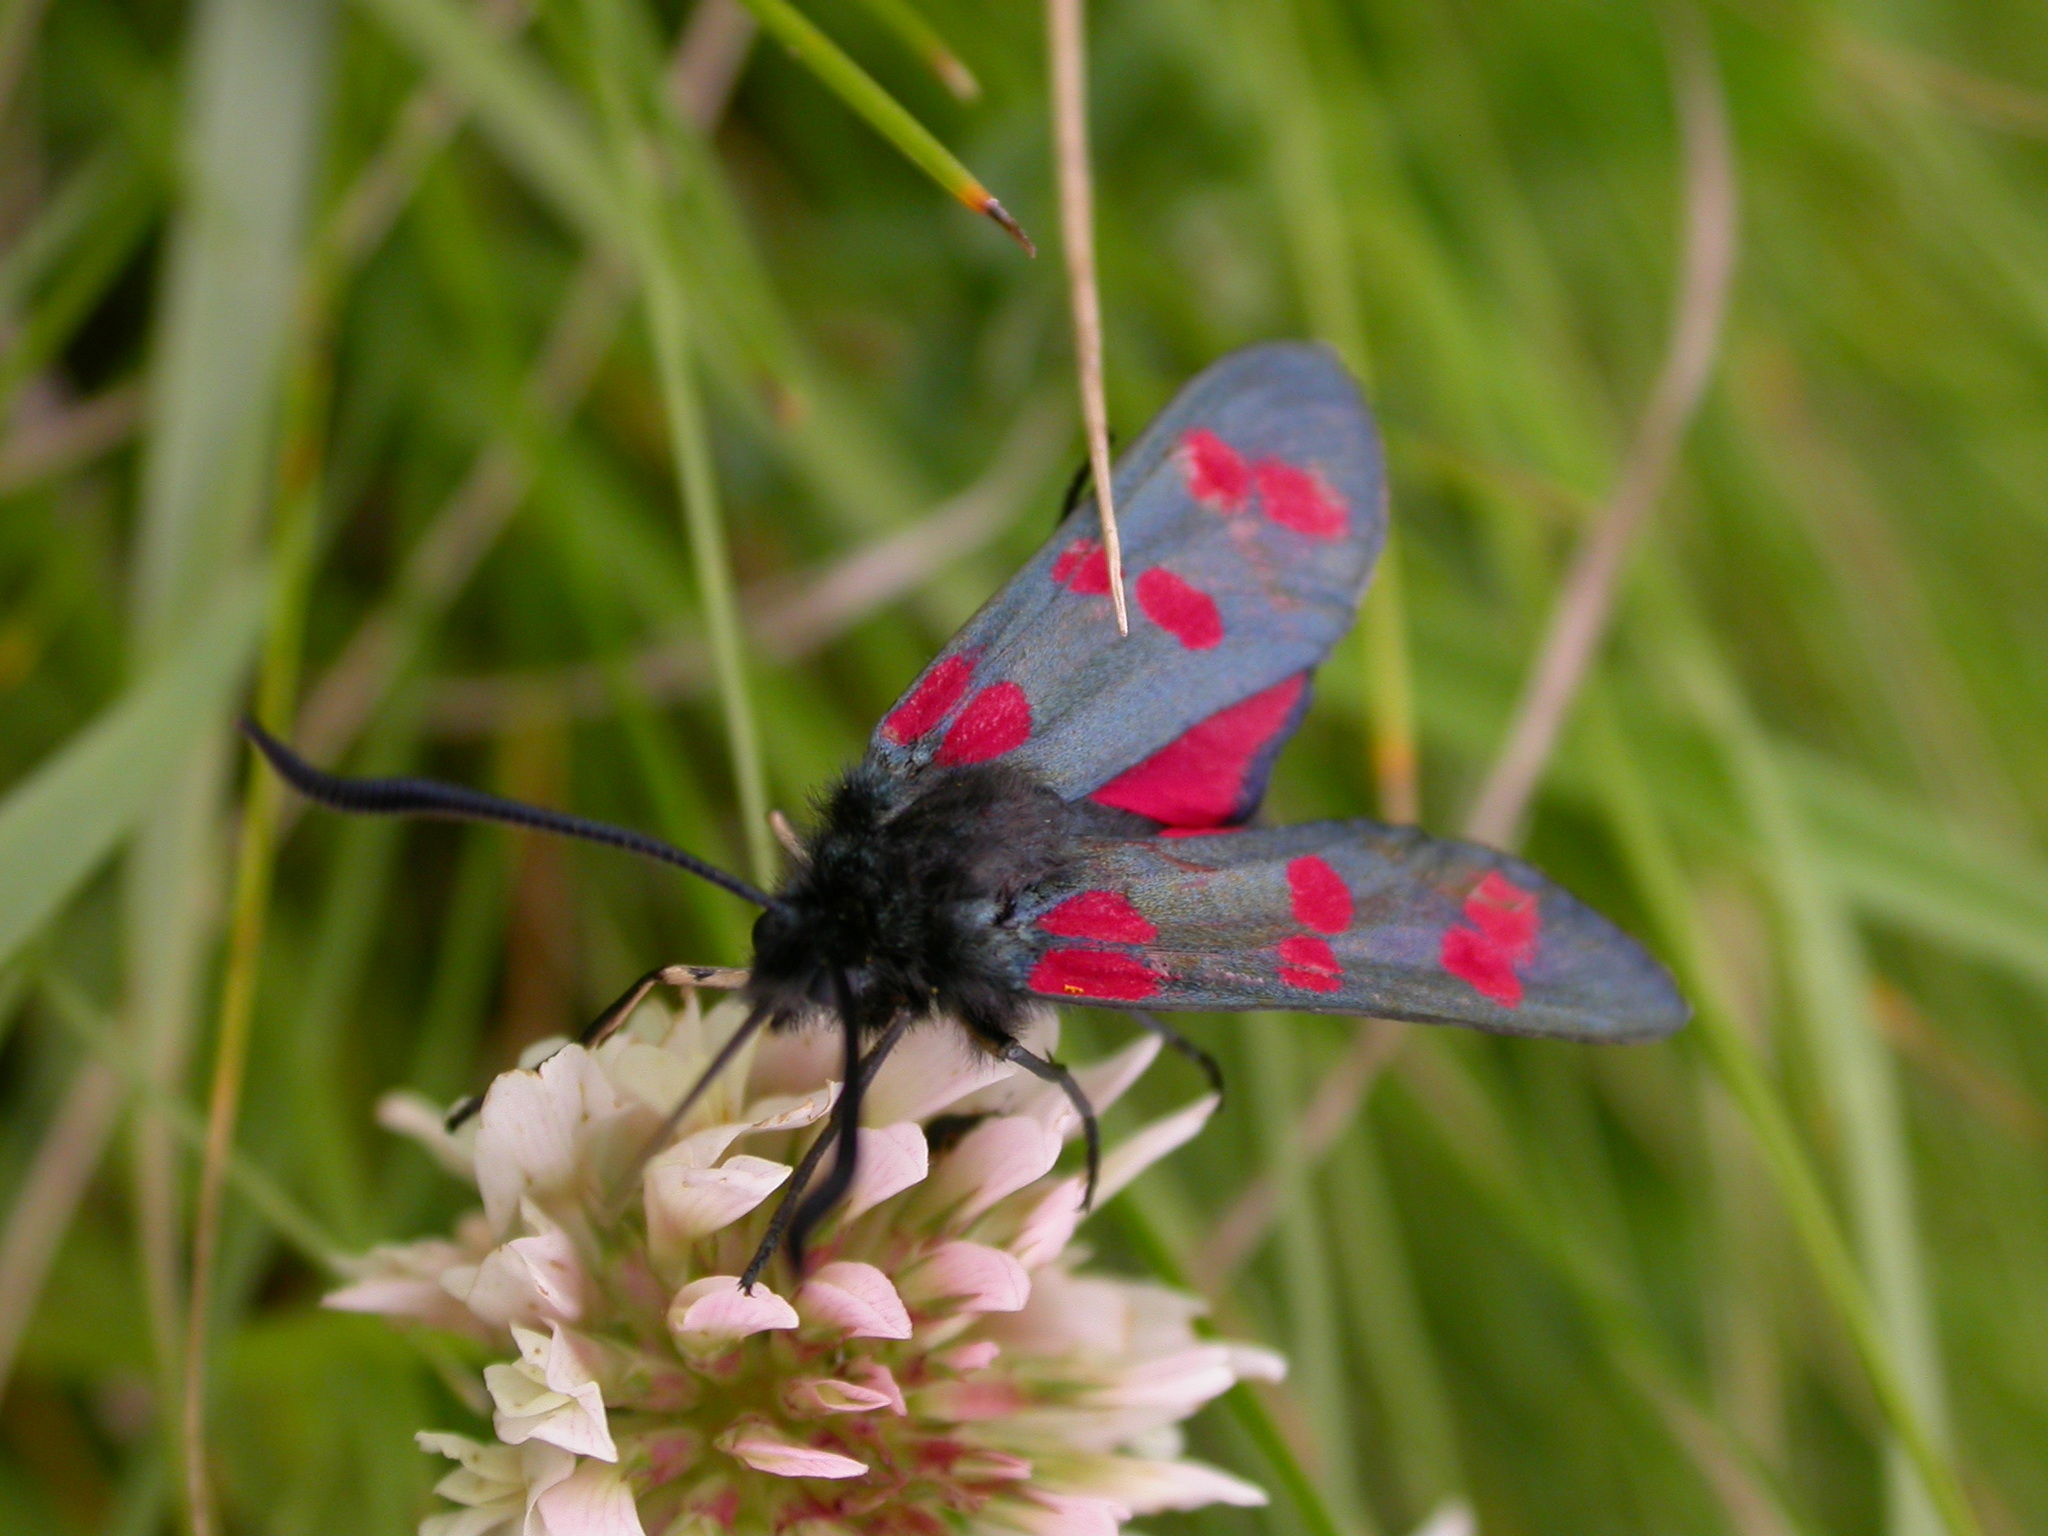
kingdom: Animalia
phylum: Arthropoda
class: Insecta
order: Lepidoptera
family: Zygaenidae
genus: Zygaena
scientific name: Zygaena filipendulae
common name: Six-spot burnet
